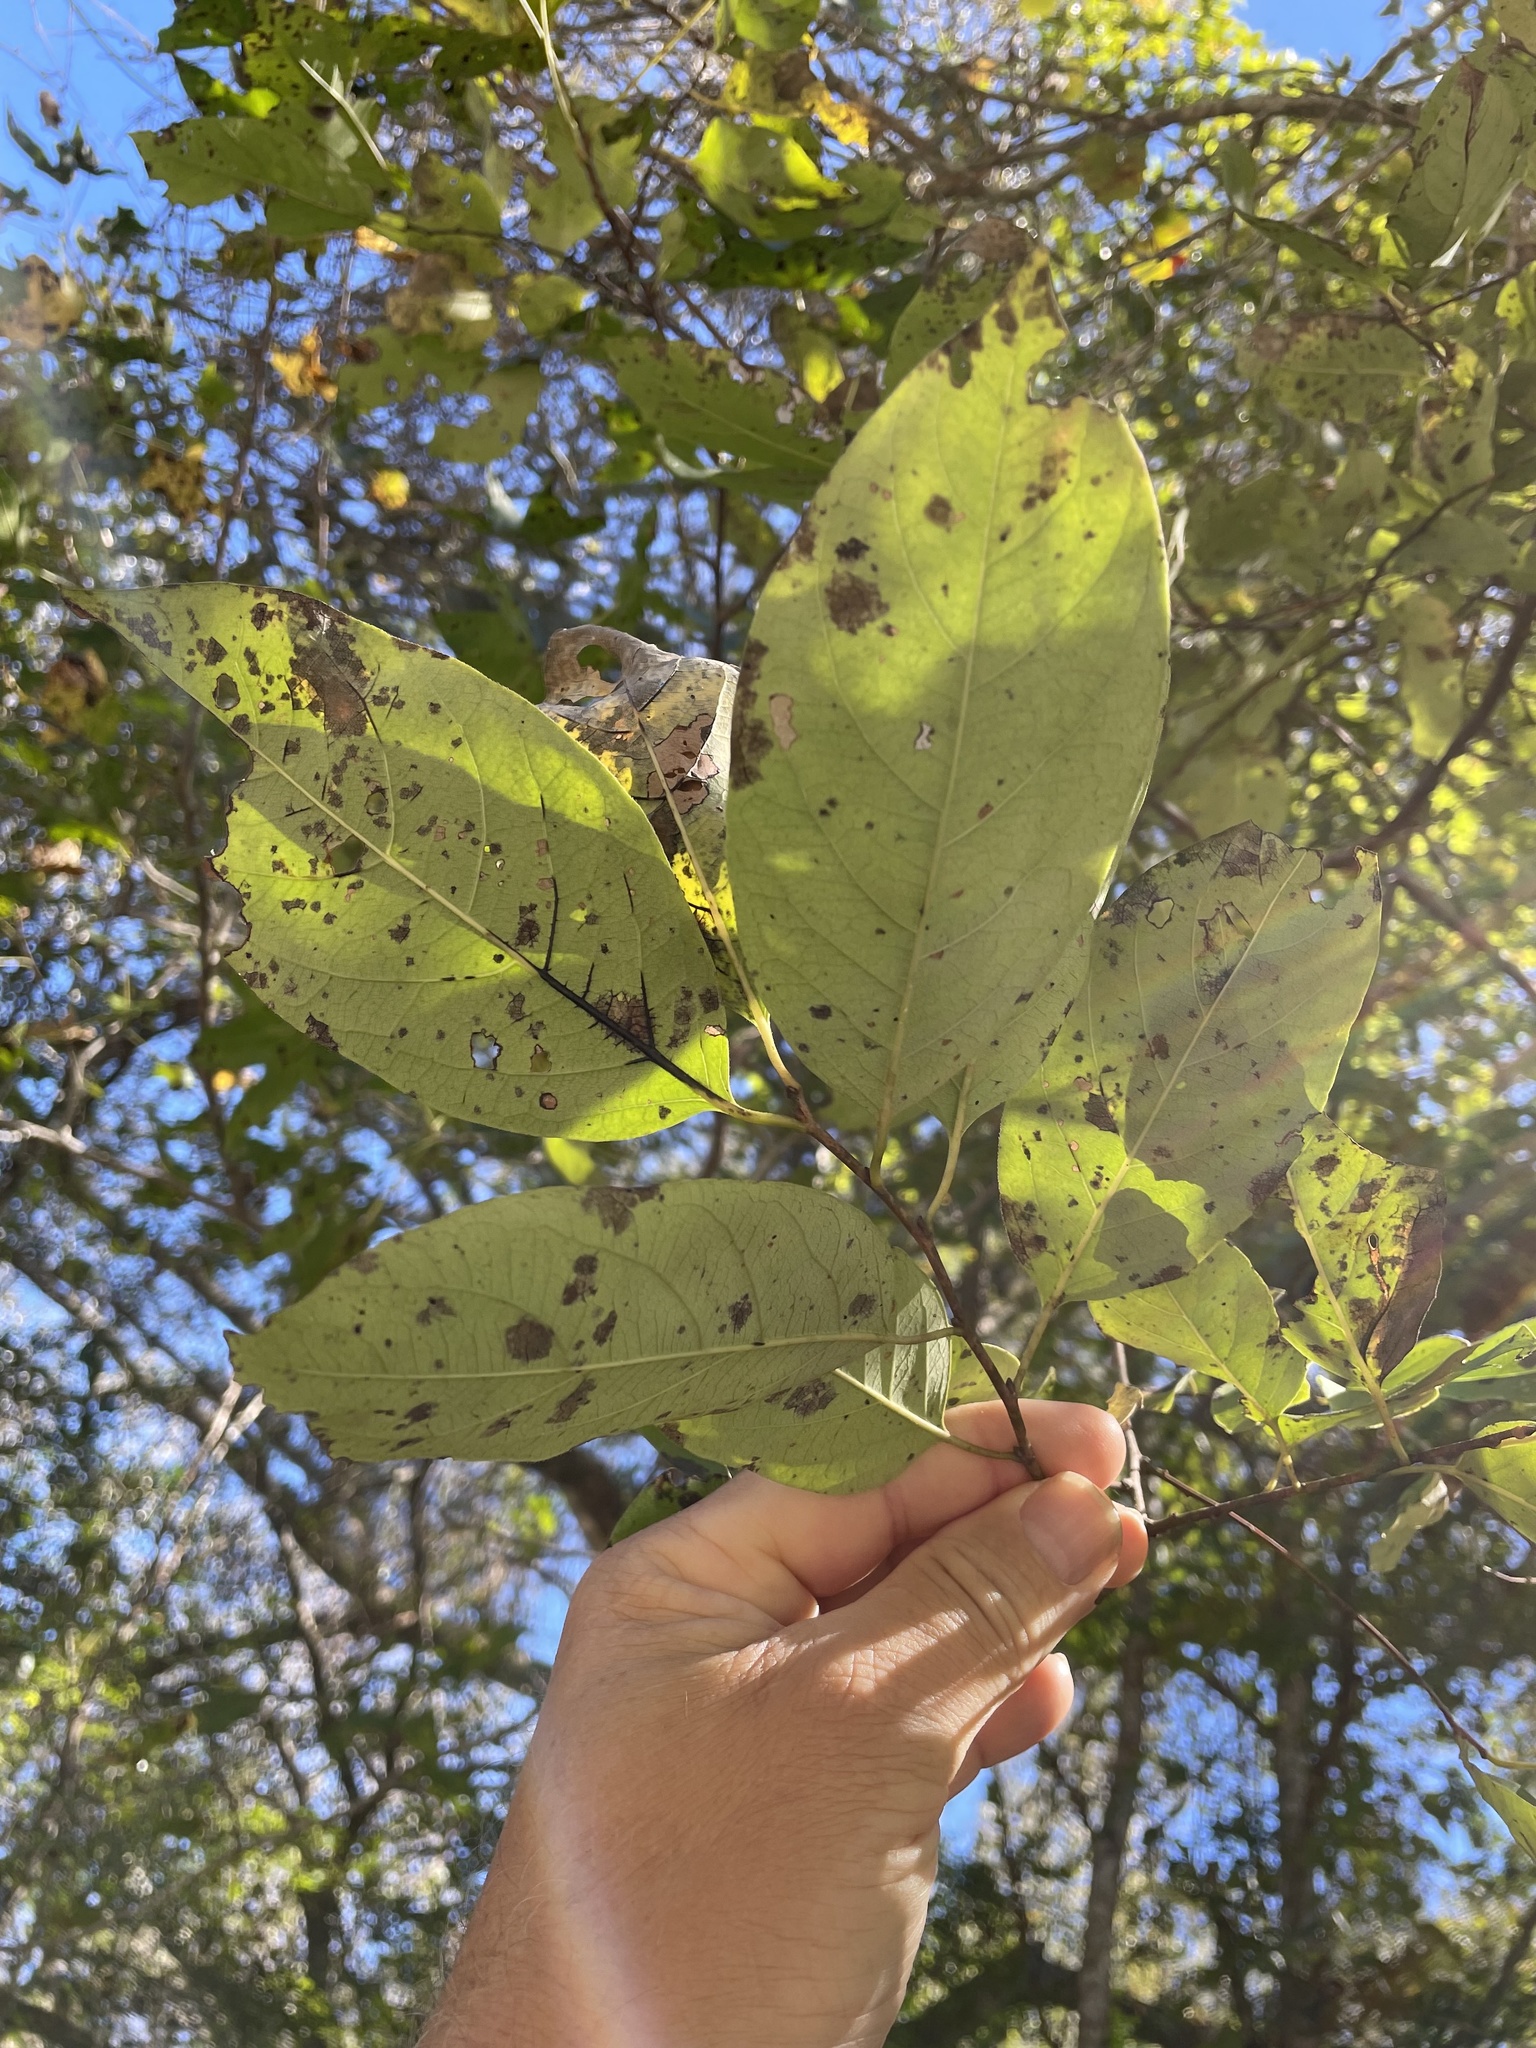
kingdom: Plantae
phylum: Tracheophyta
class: Magnoliopsida
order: Ericales
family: Ebenaceae
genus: Diospyros
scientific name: Diospyros virginiana
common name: Persimmon
